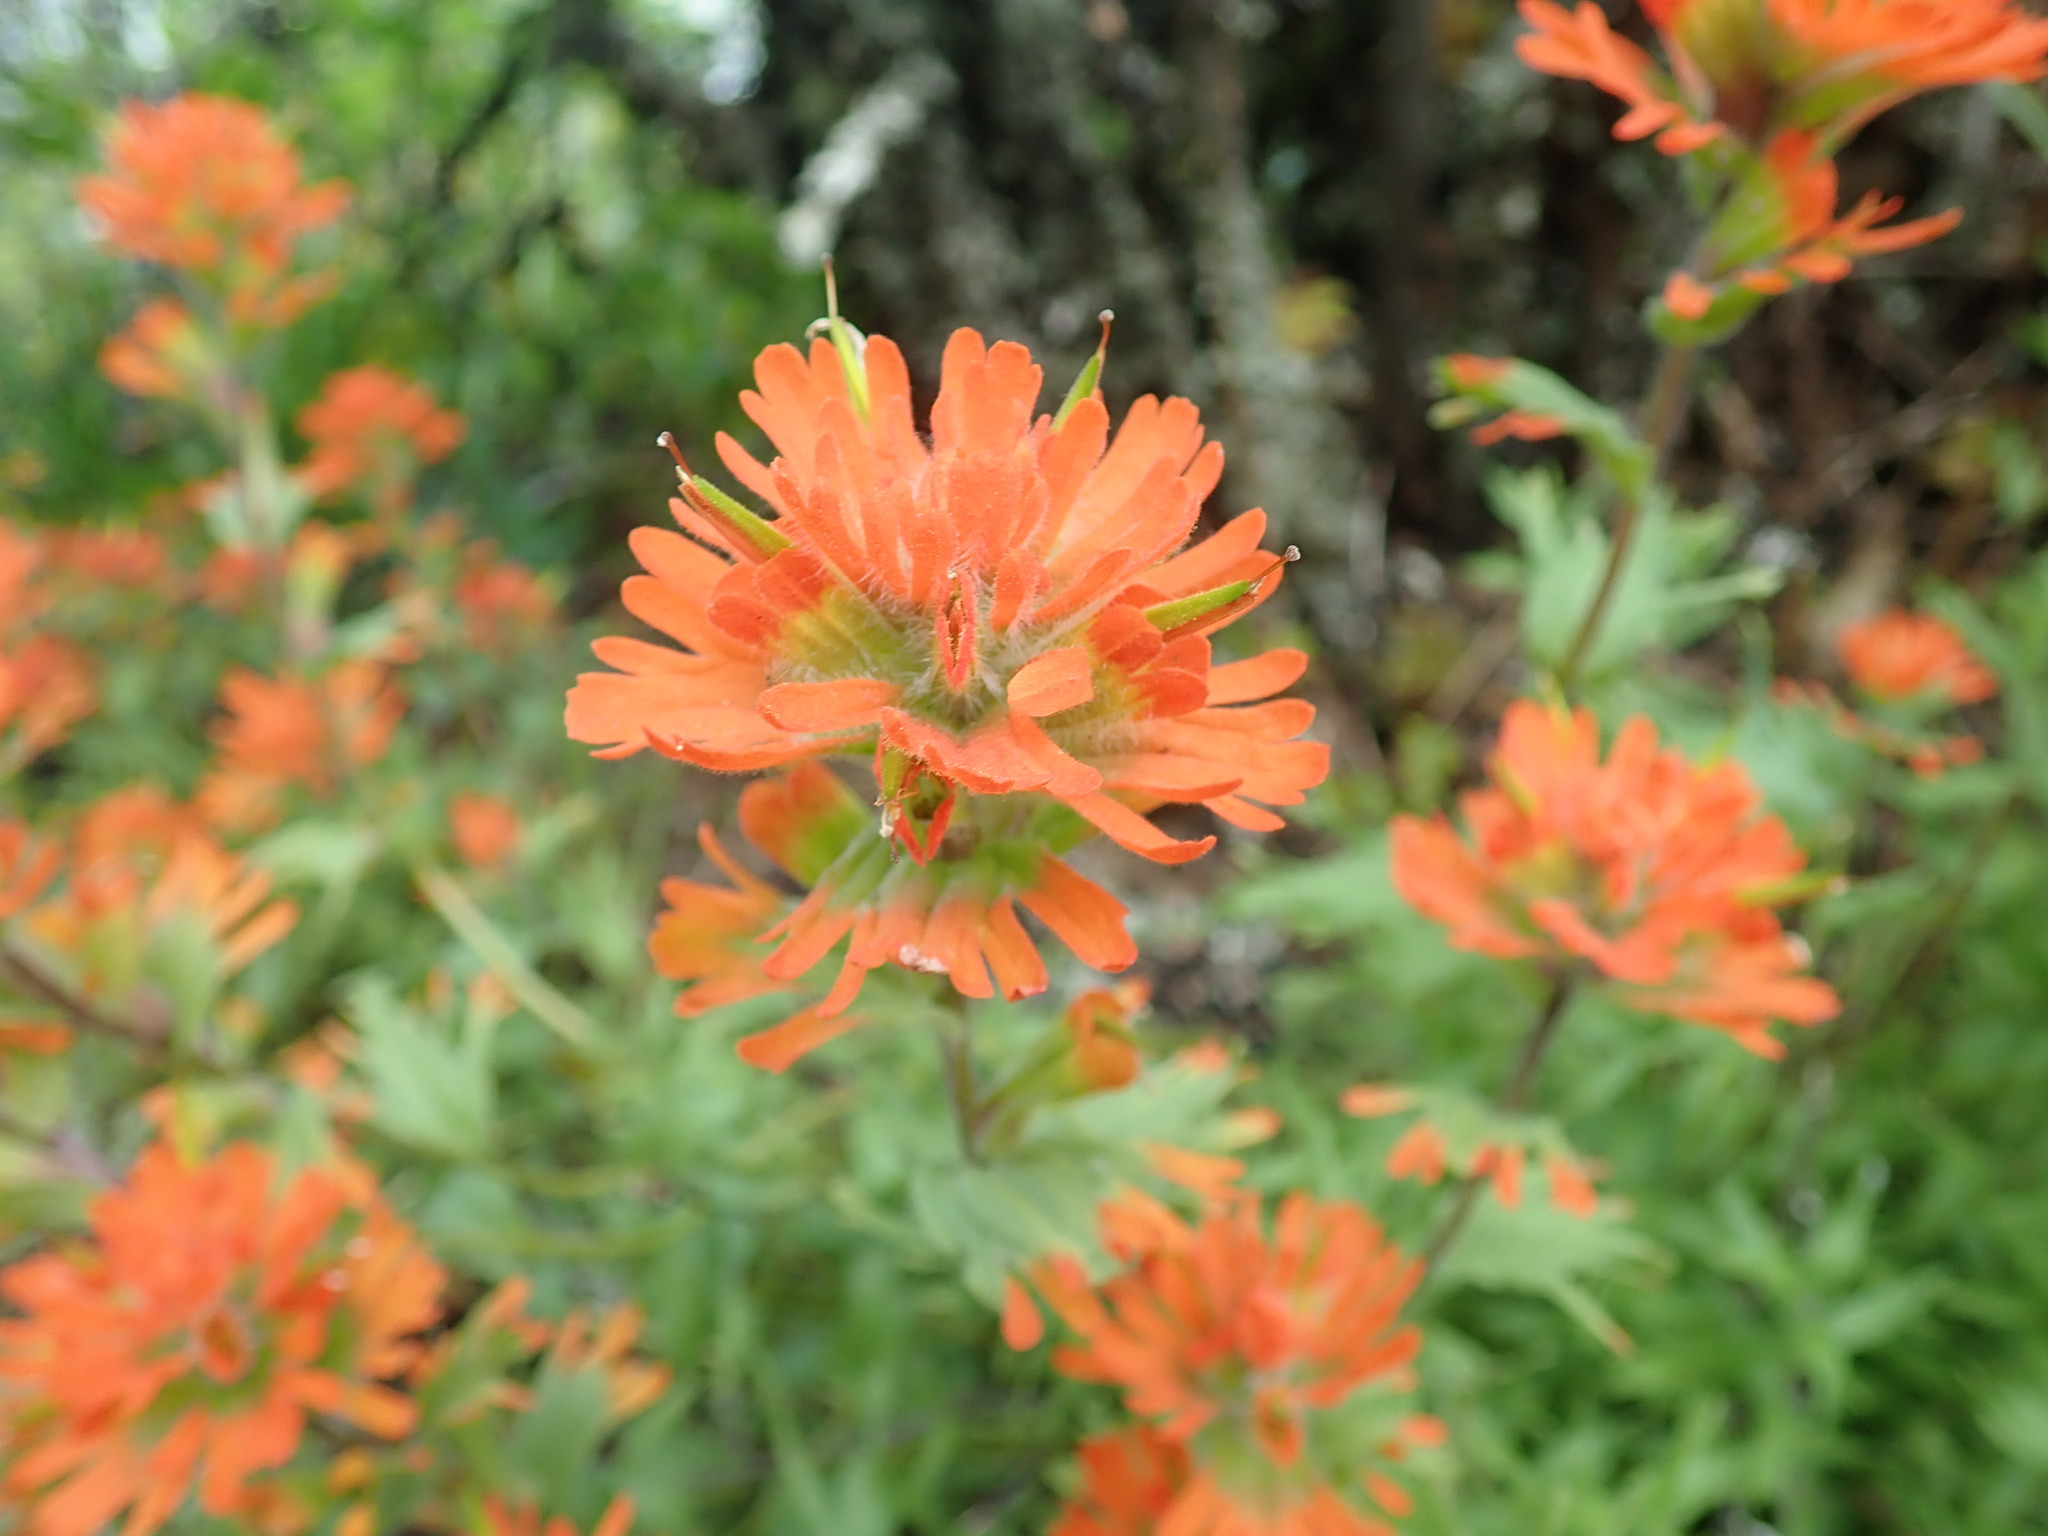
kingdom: Plantae
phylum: Tracheophyta
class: Magnoliopsida
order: Lamiales
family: Orobanchaceae
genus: Castilleja
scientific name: Castilleja hispida
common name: Bristly paintbrush
